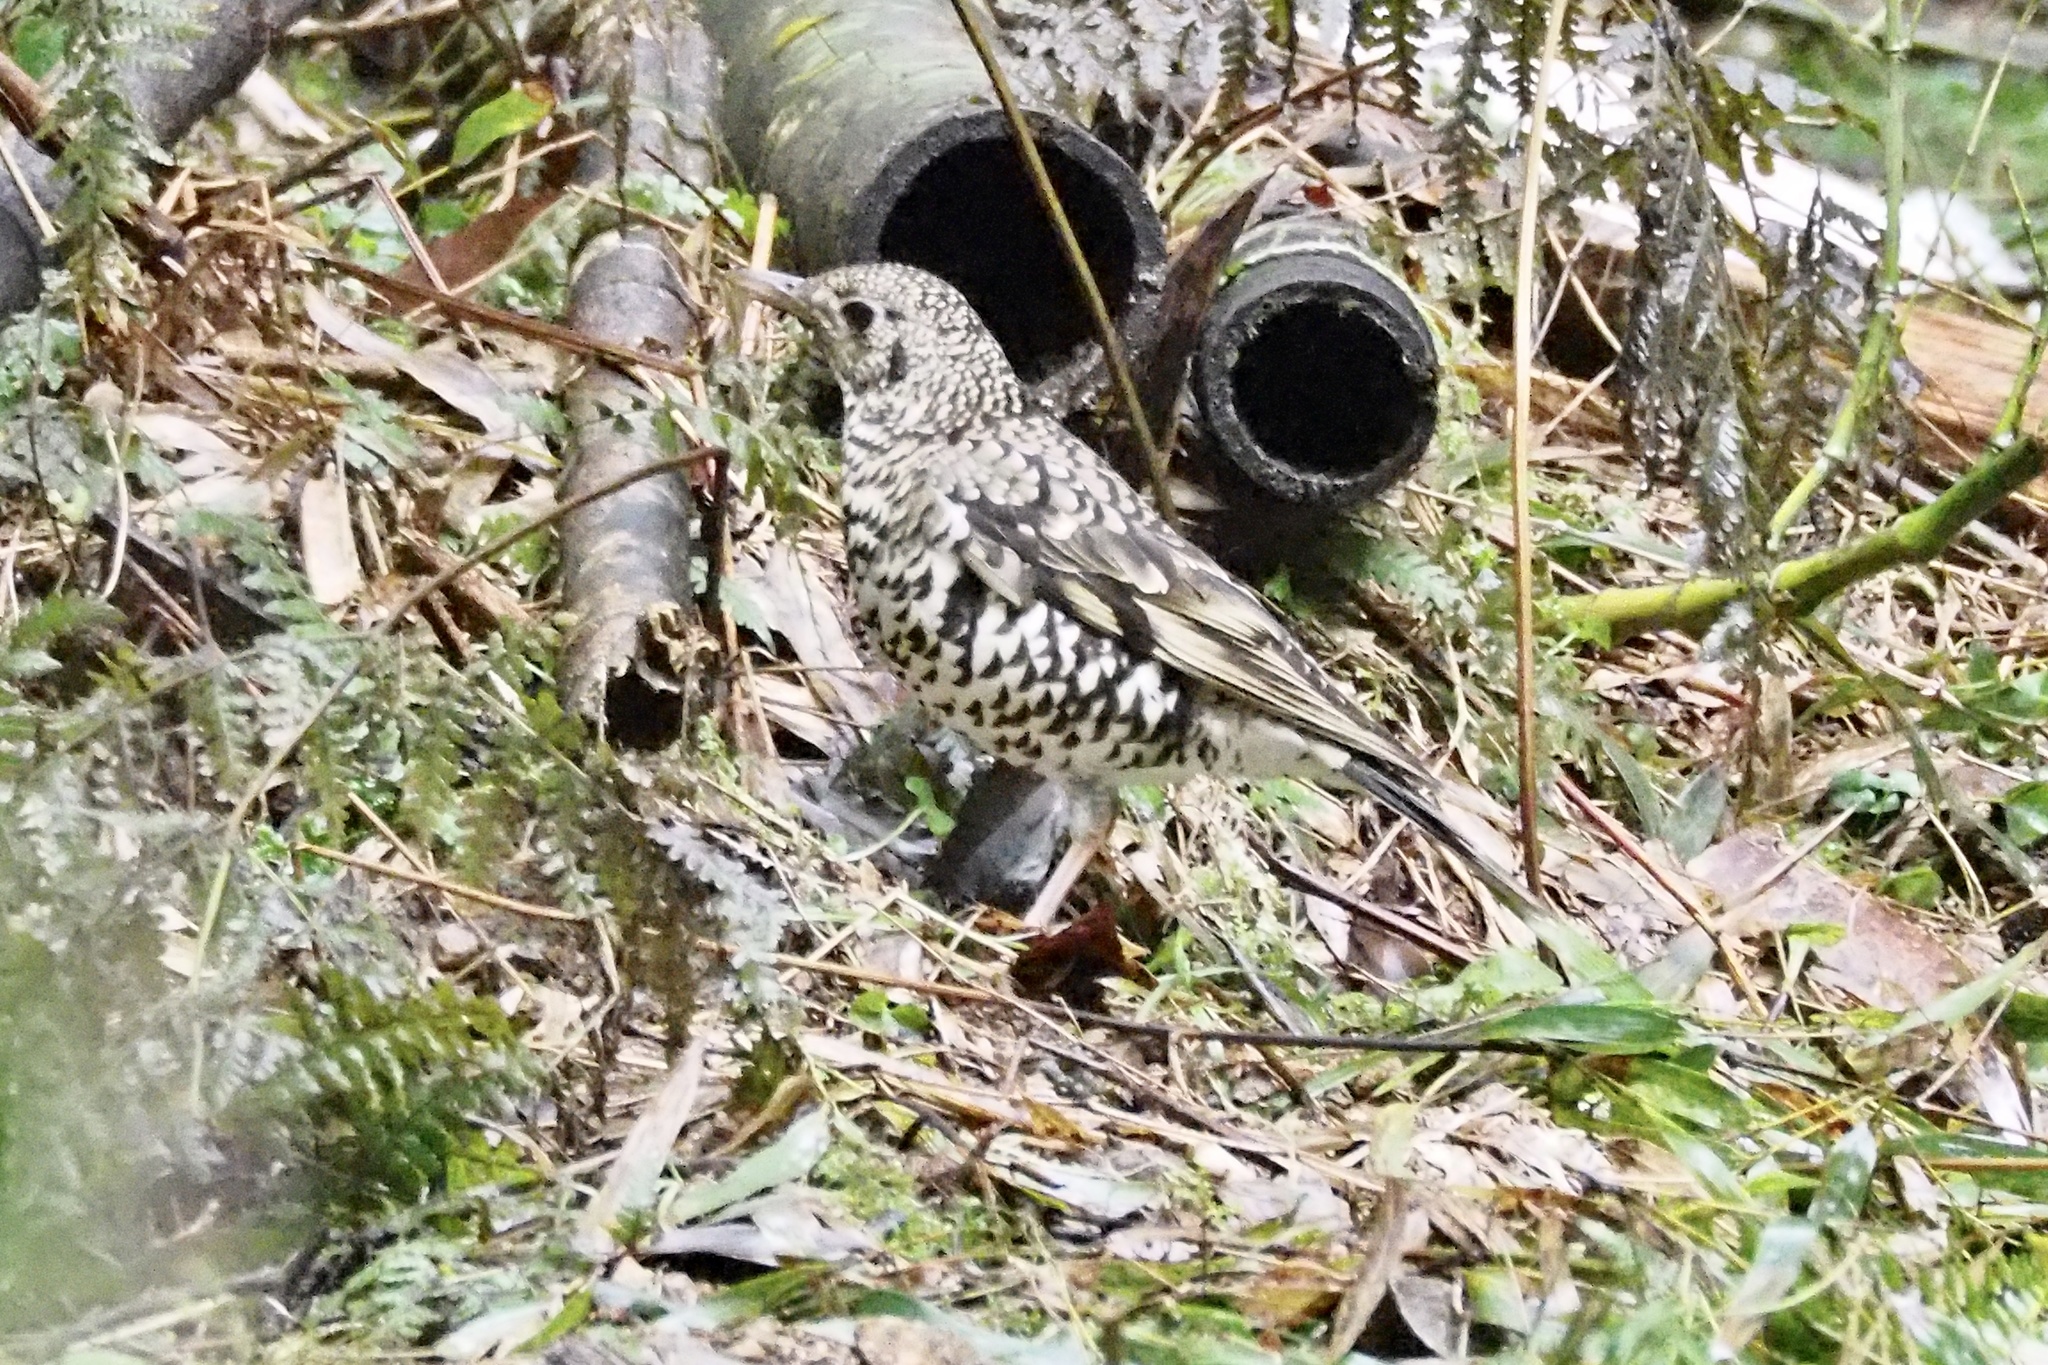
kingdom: Animalia
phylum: Chordata
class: Aves
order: Passeriformes
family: Turdidae
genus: Zoothera
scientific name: Zoothera aurea
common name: White's thrush
